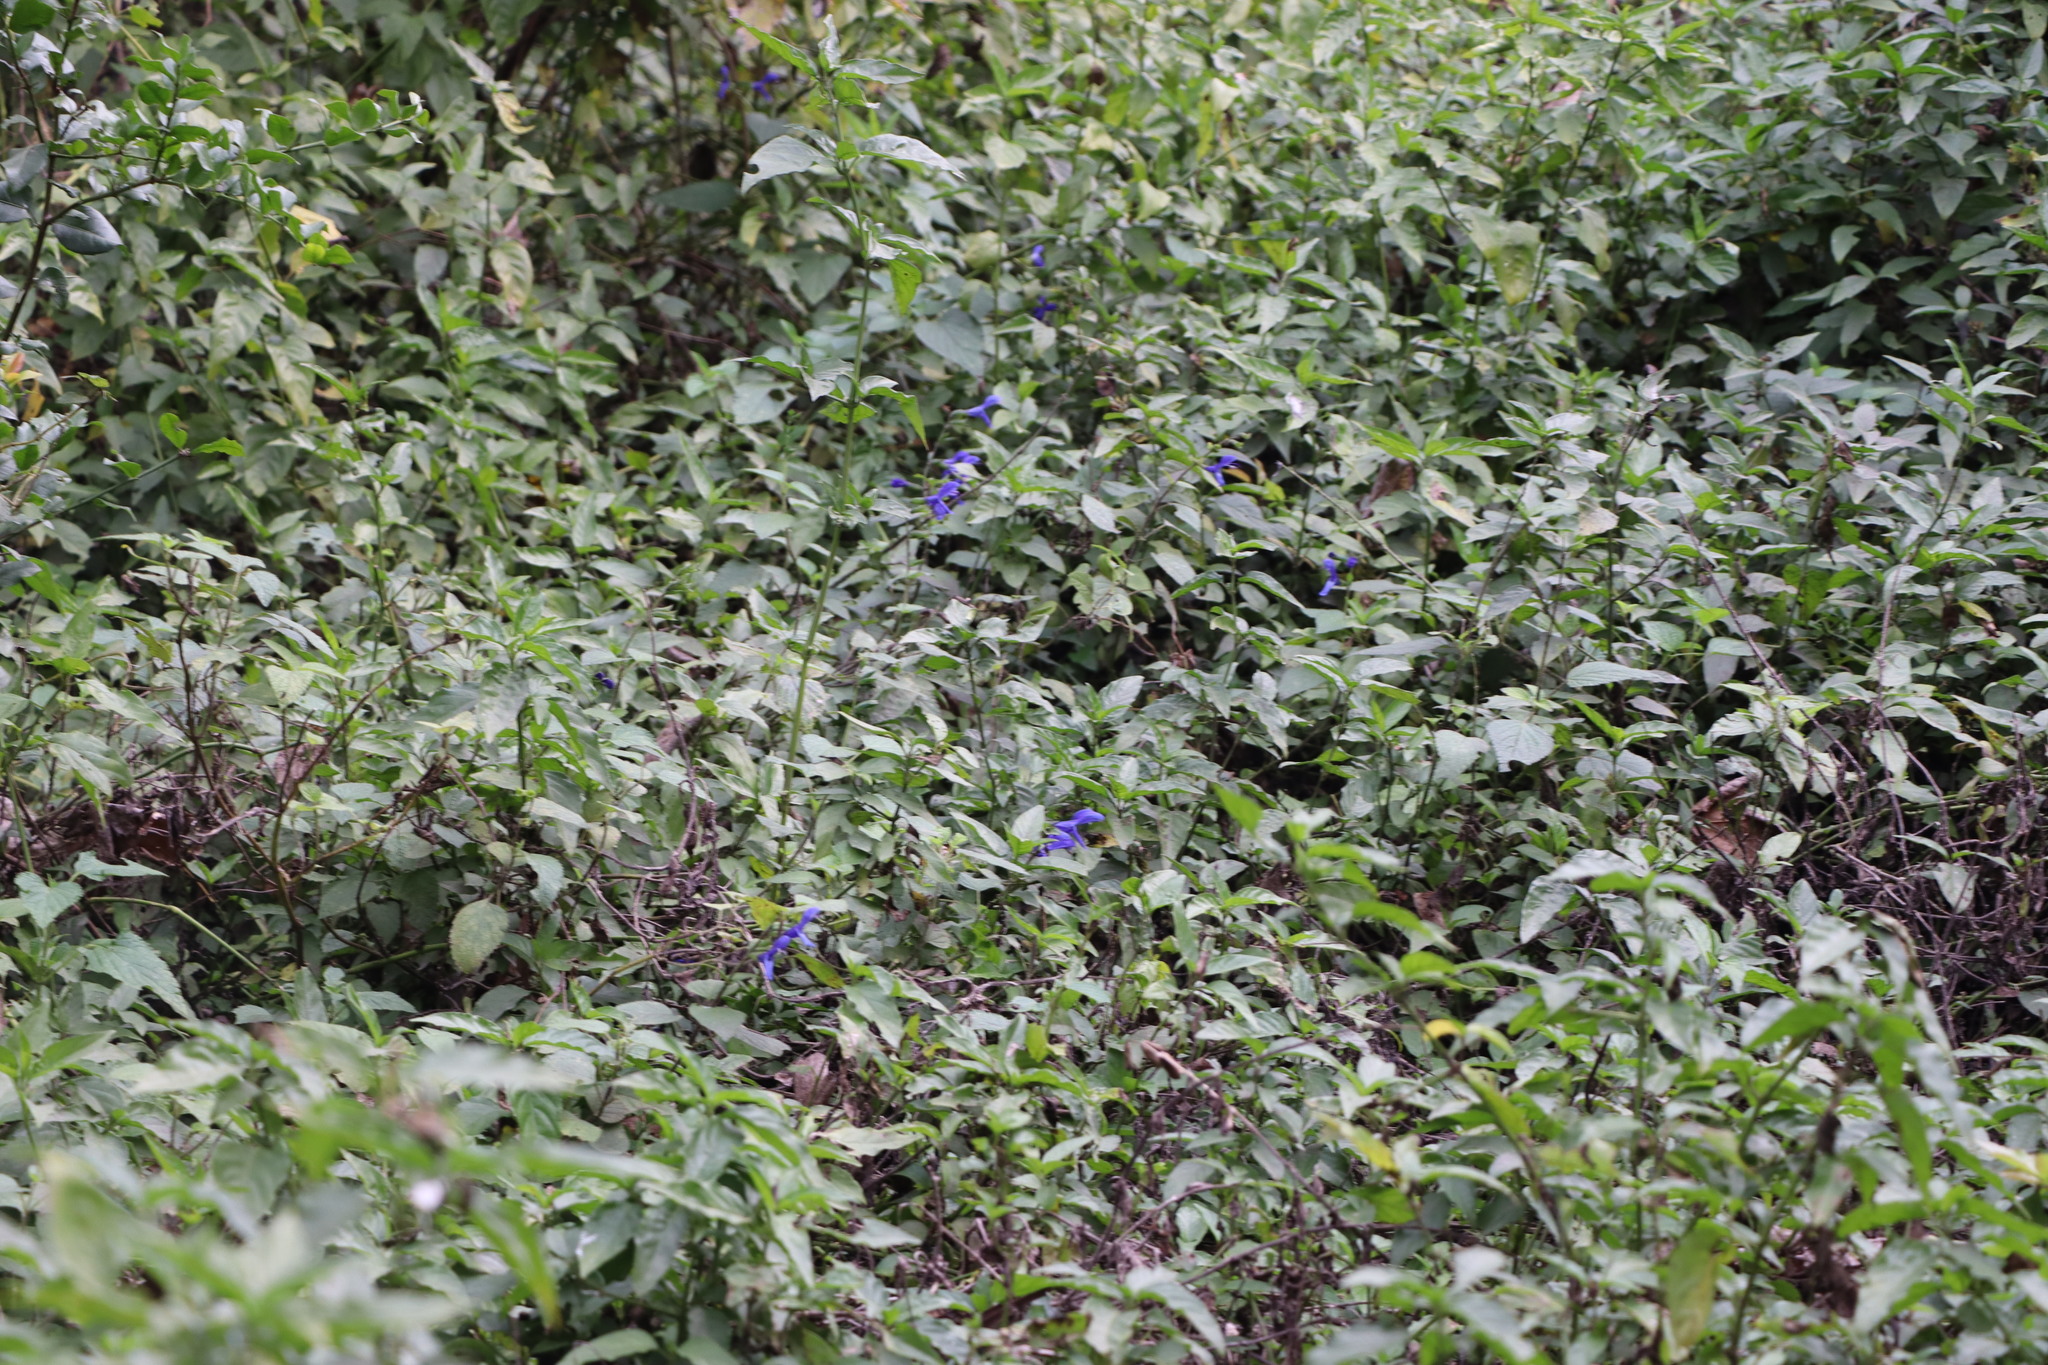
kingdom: Plantae
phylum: Tracheophyta
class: Magnoliopsida
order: Lamiales
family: Lamiaceae
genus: Salvia
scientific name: Salvia guaranitica
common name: Anise-scented sage
